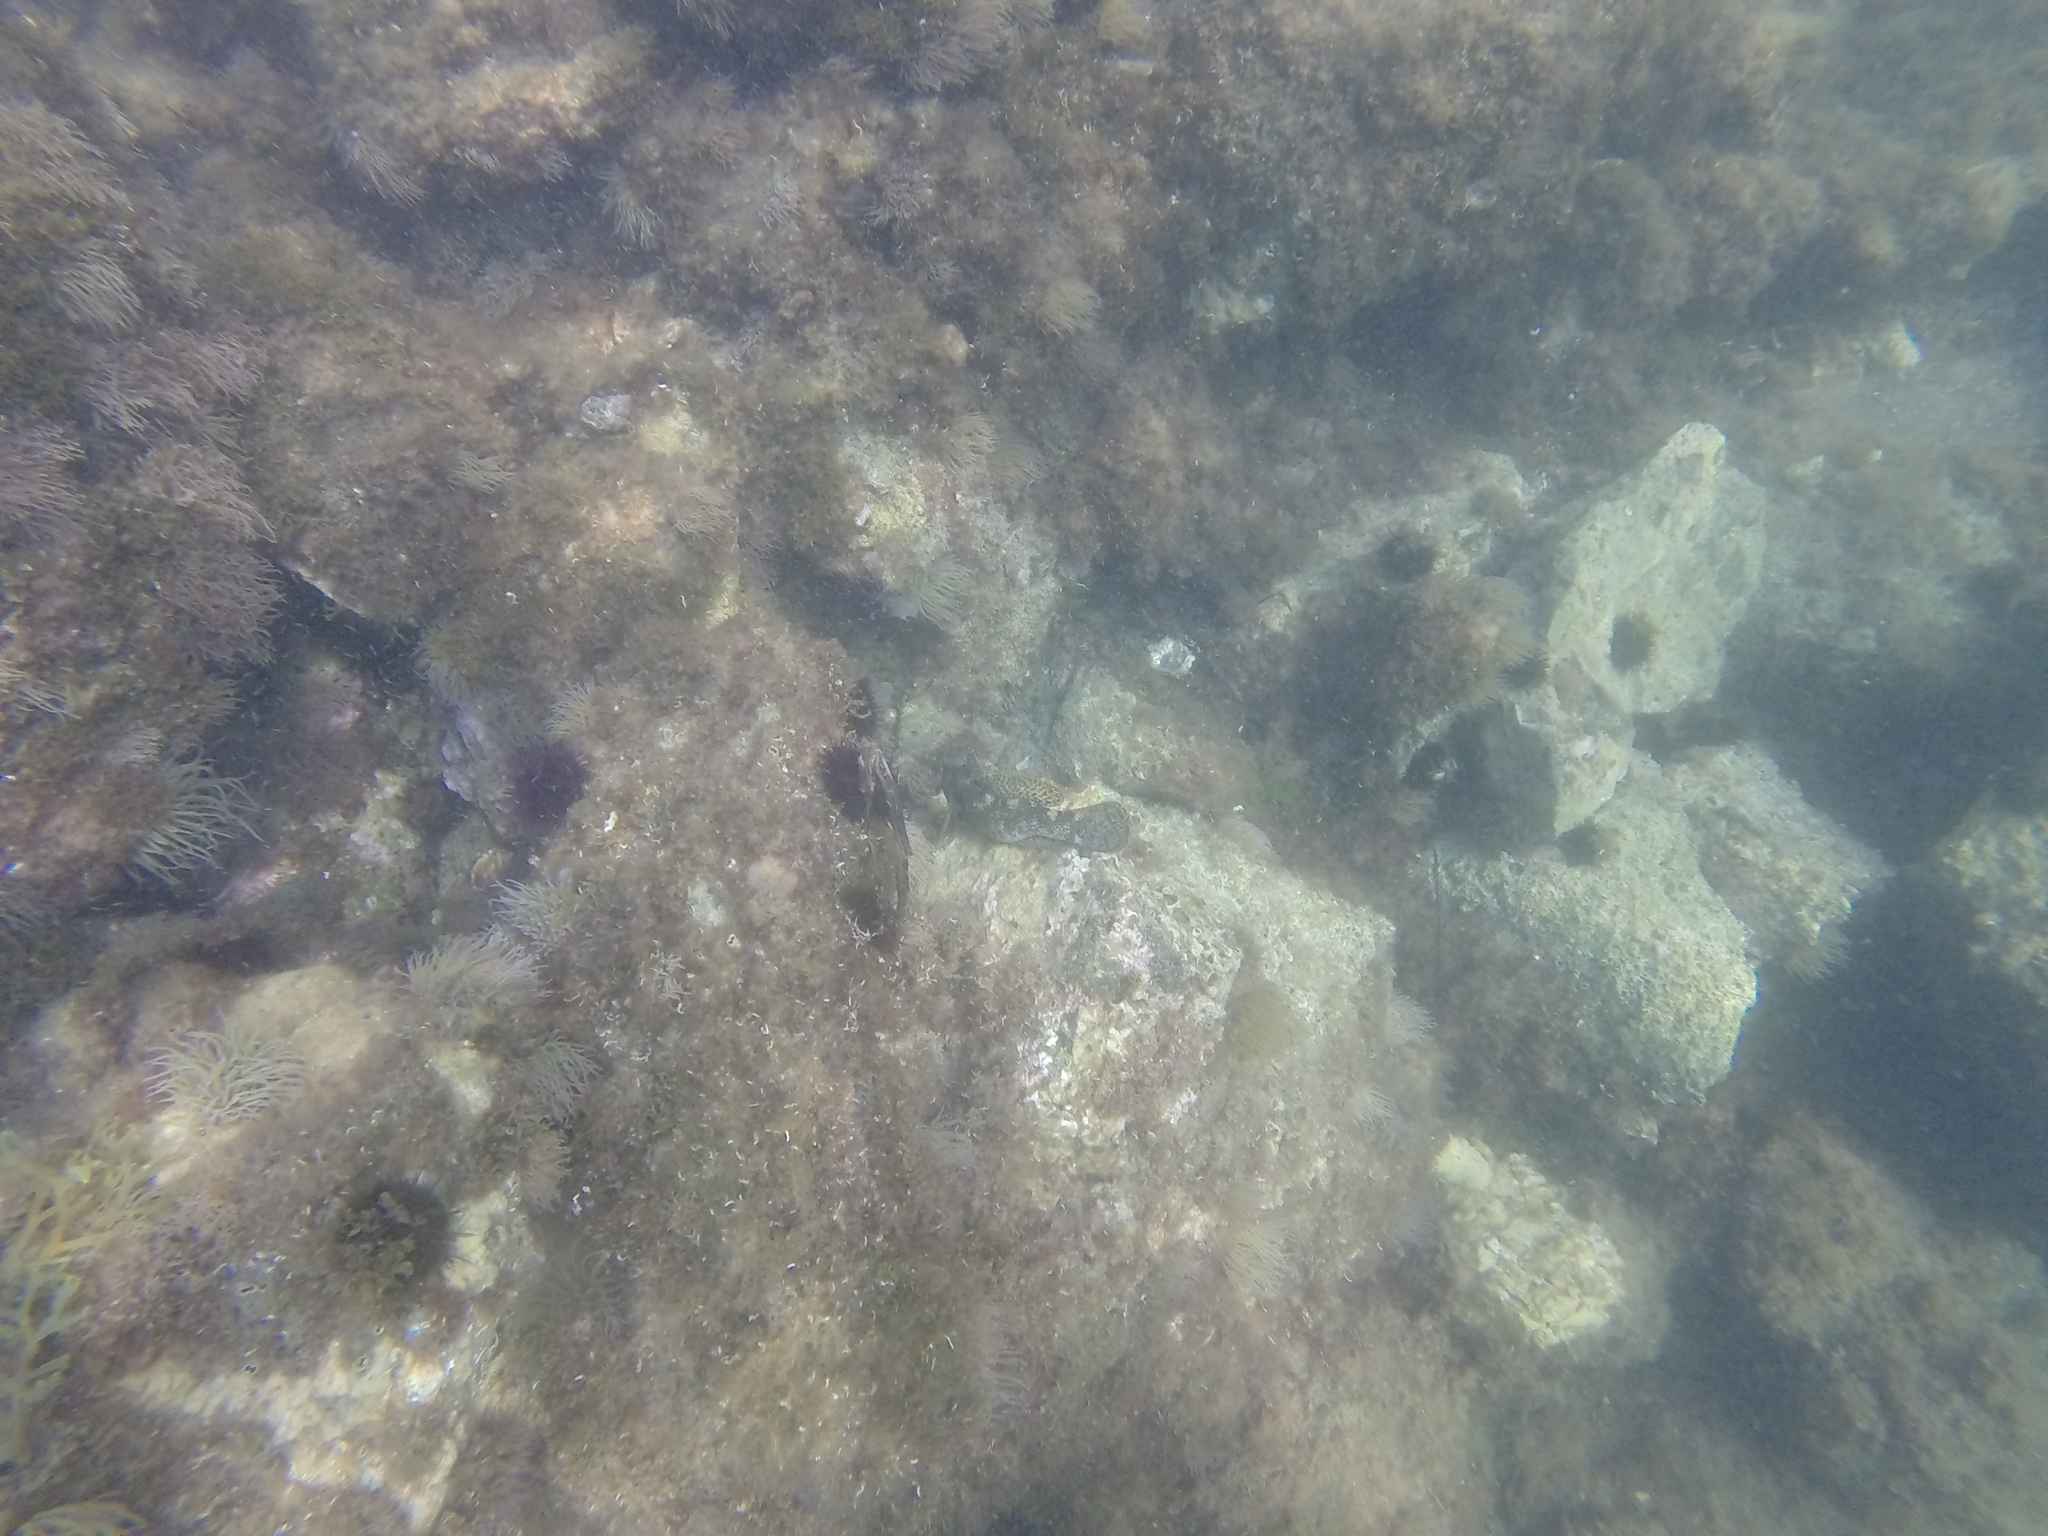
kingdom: Animalia
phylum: Chordata
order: Perciformes
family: Gobiidae
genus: Gobius
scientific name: Gobius cobitis
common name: Giant goby
